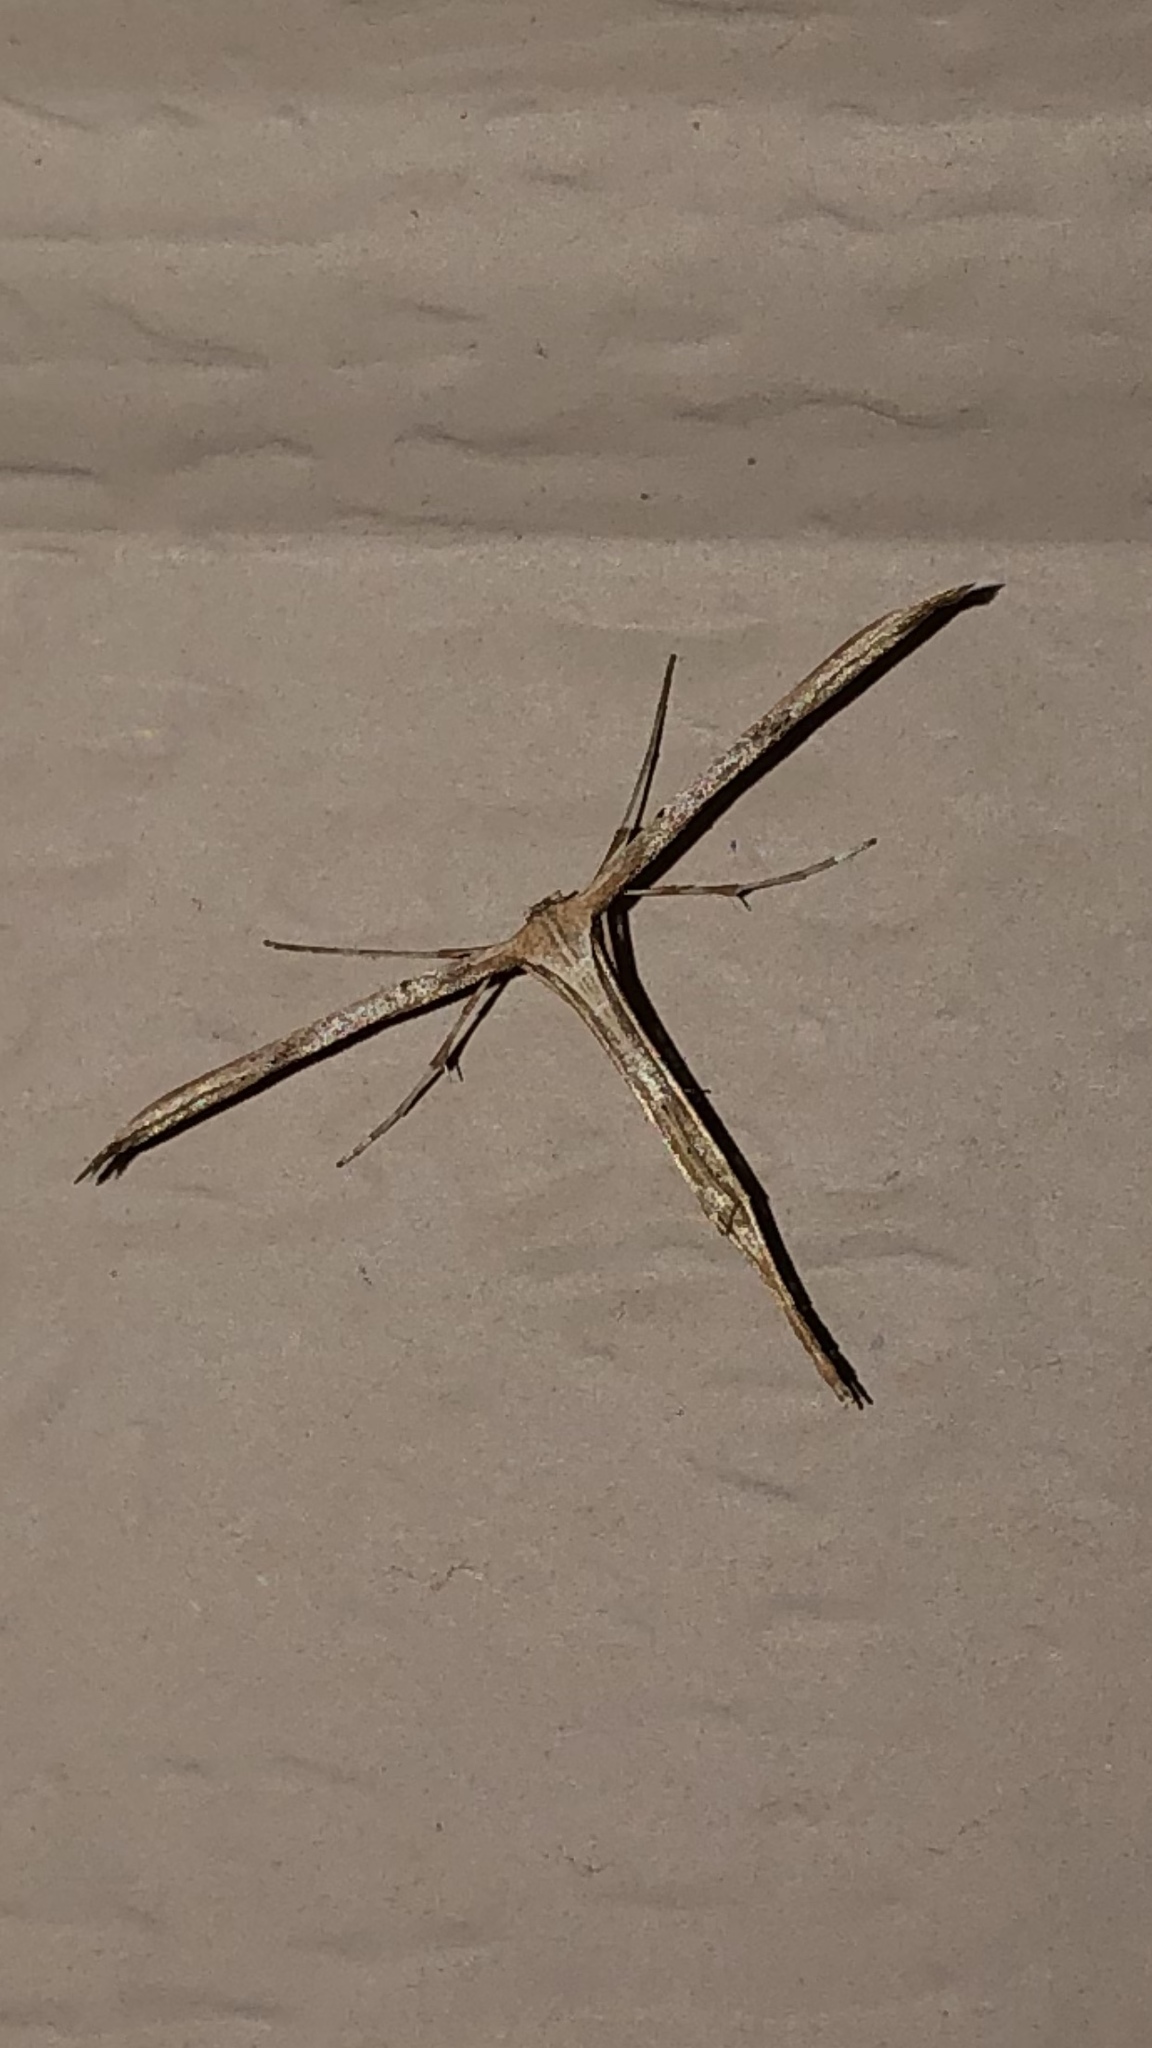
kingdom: Animalia
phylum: Arthropoda
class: Insecta
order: Lepidoptera
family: Pterophoridae
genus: Emmelina
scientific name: Emmelina monodactyla
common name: Common plume
